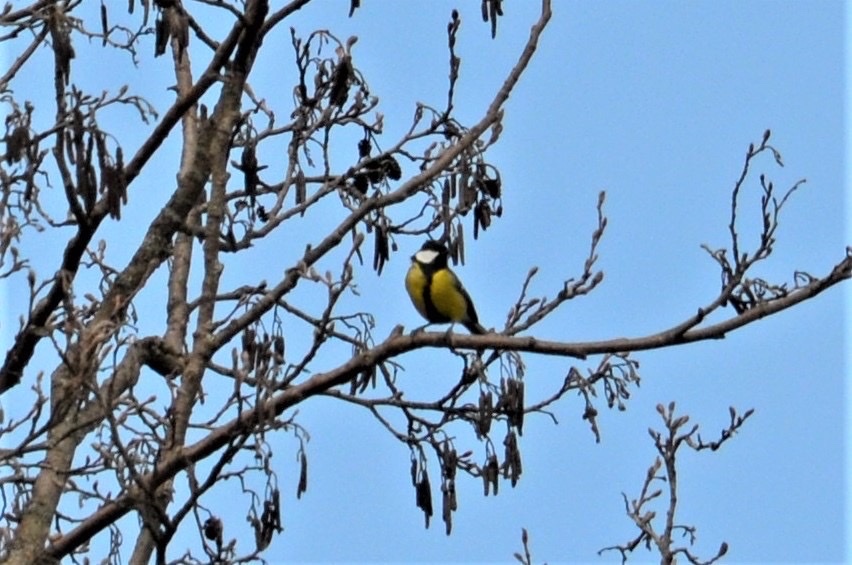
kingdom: Animalia
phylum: Chordata
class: Aves
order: Passeriformes
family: Paridae
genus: Parus
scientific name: Parus major
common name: Great tit
